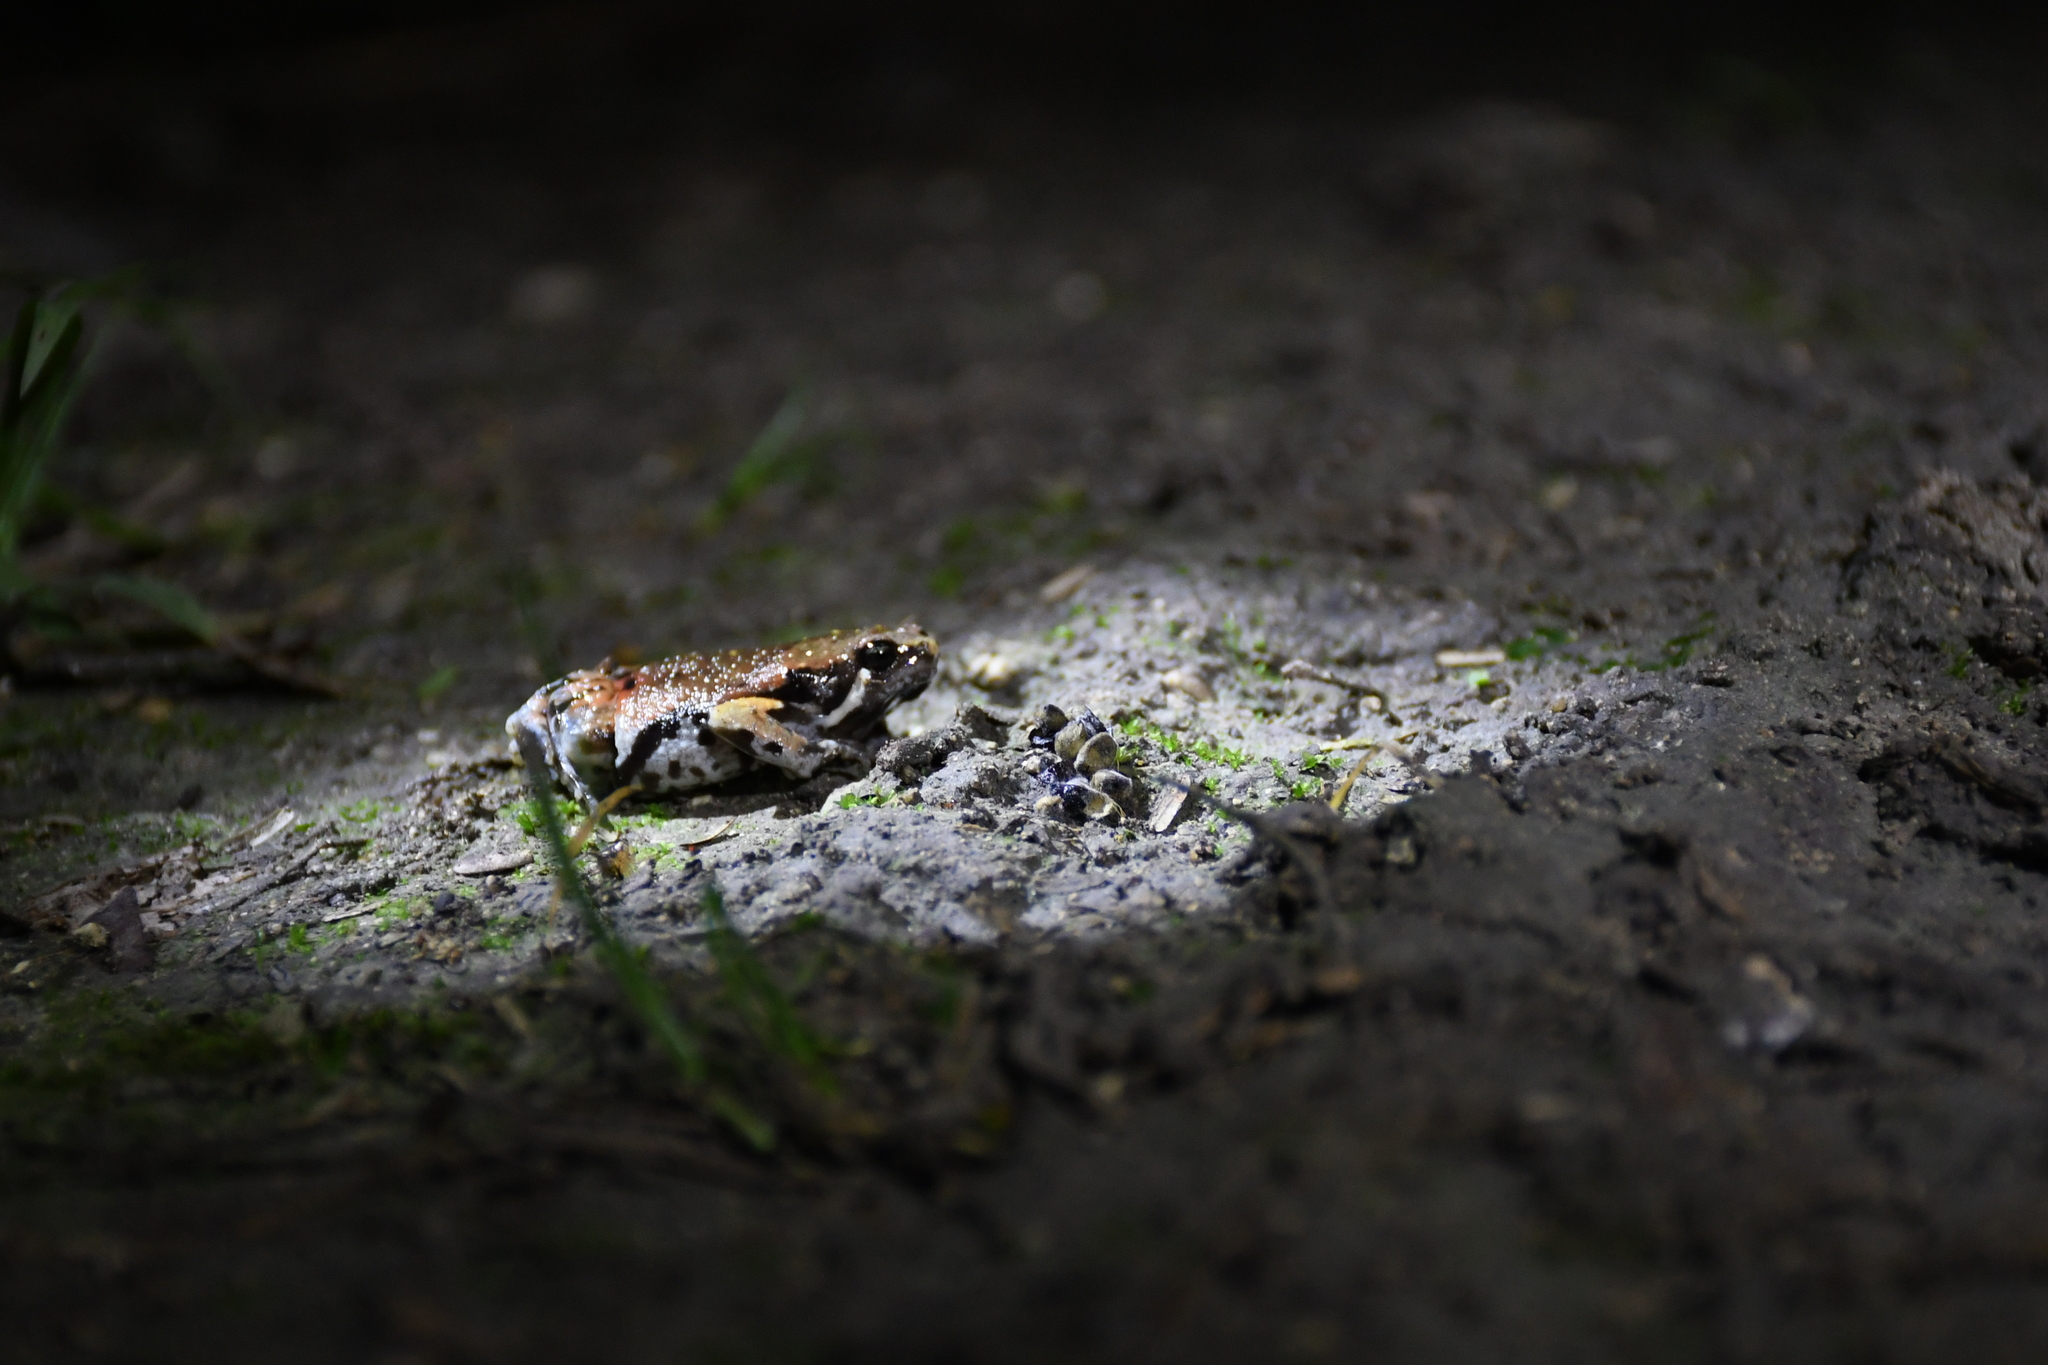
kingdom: Animalia
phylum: Chordata
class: Amphibia
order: Anura
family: Microhylidae
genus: Hypopachus
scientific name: Hypopachus variolosus
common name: Sheep frog
